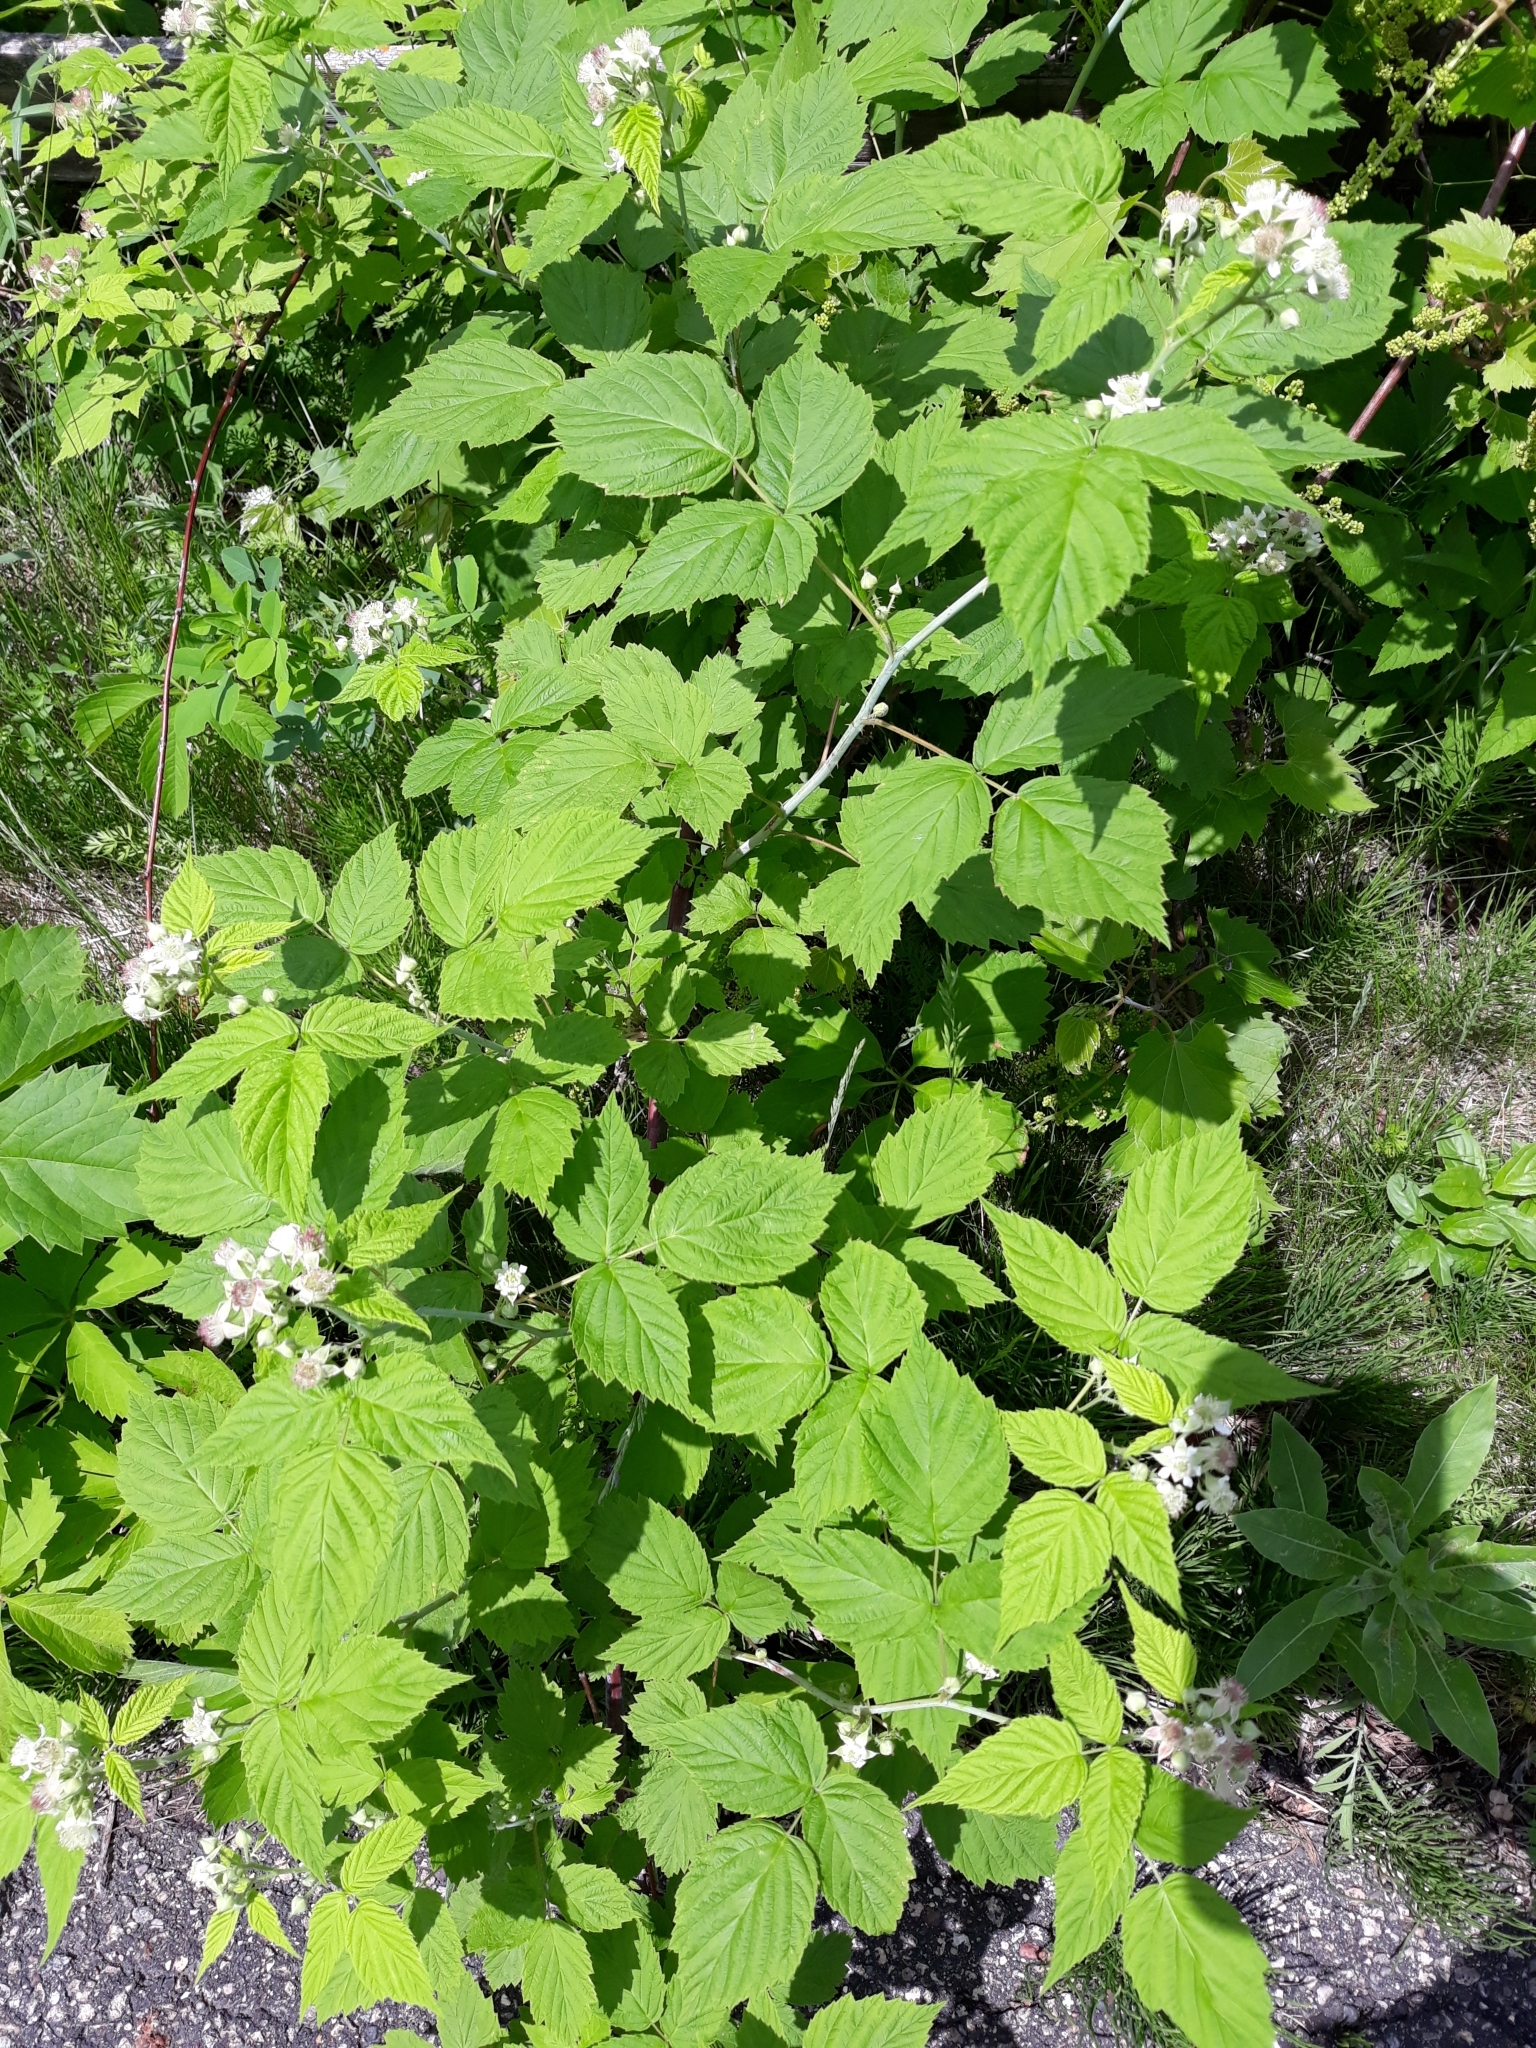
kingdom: Plantae
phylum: Tracheophyta
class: Magnoliopsida
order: Rosales
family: Rosaceae
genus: Rubus
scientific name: Rubus occidentalis
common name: Black raspberry
